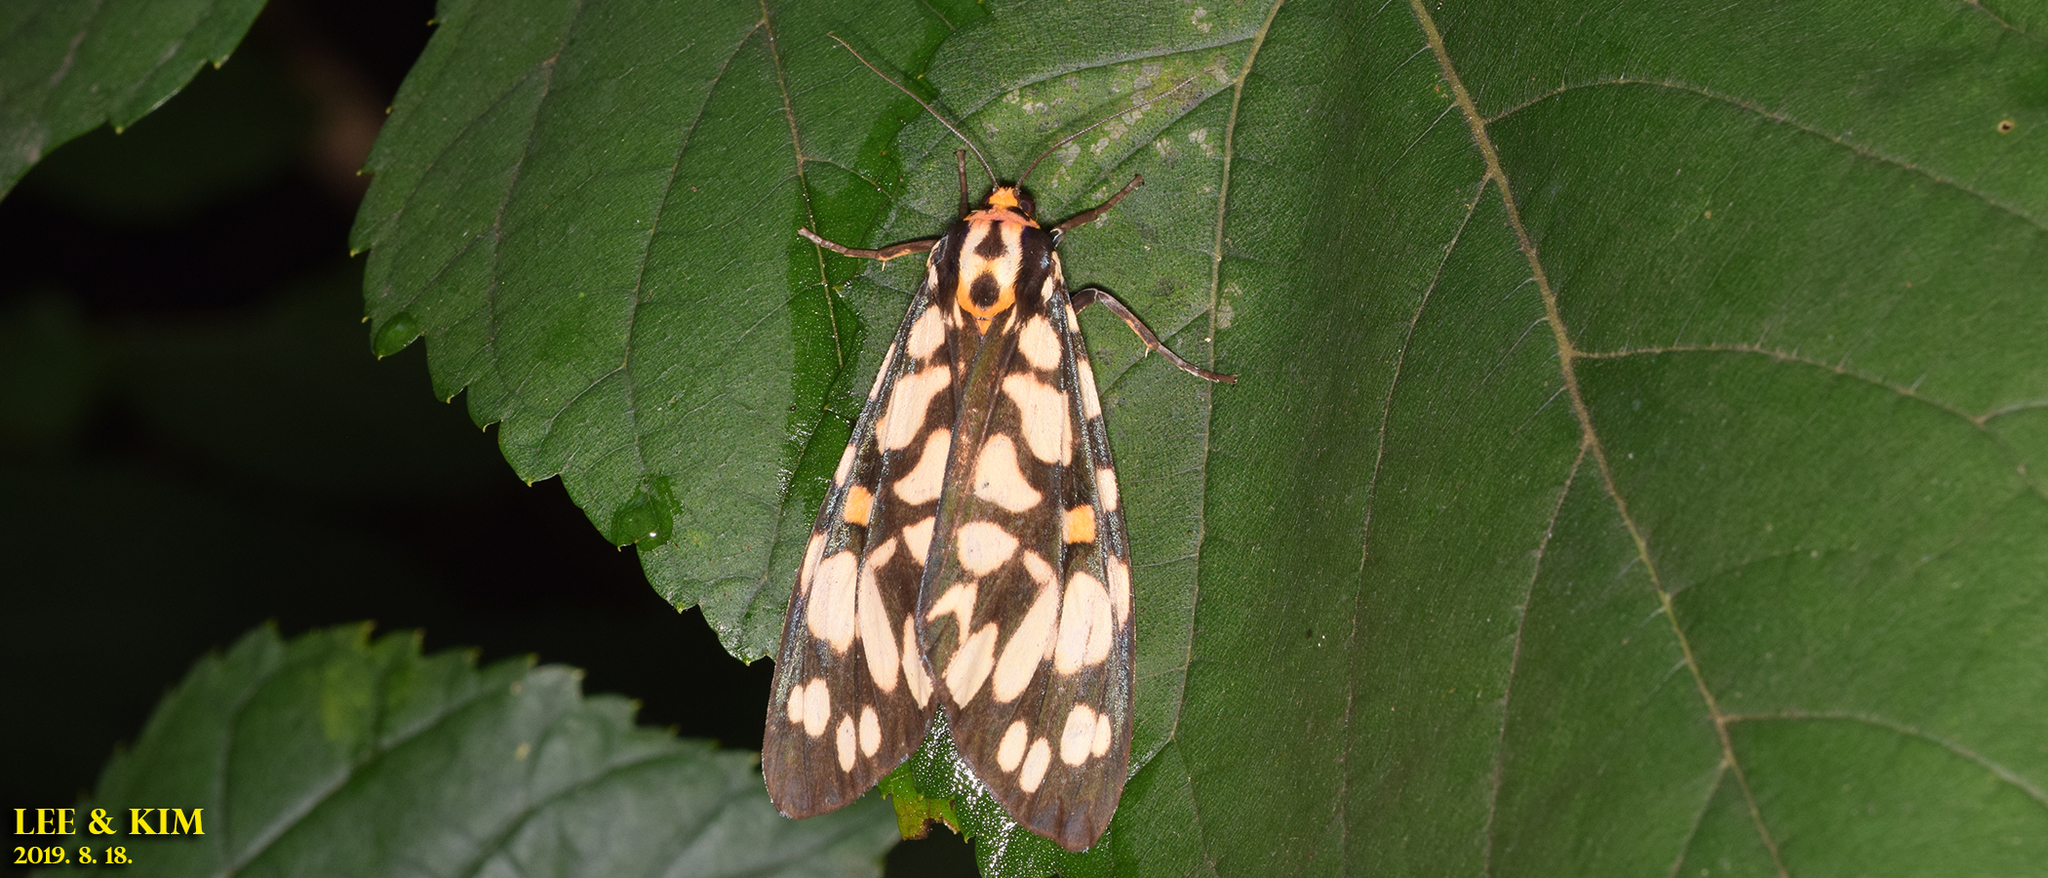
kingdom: Animalia
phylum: Arthropoda
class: Insecta
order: Lepidoptera
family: Erebidae
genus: Aglaomorpha
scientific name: Aglaomorpha histrio
